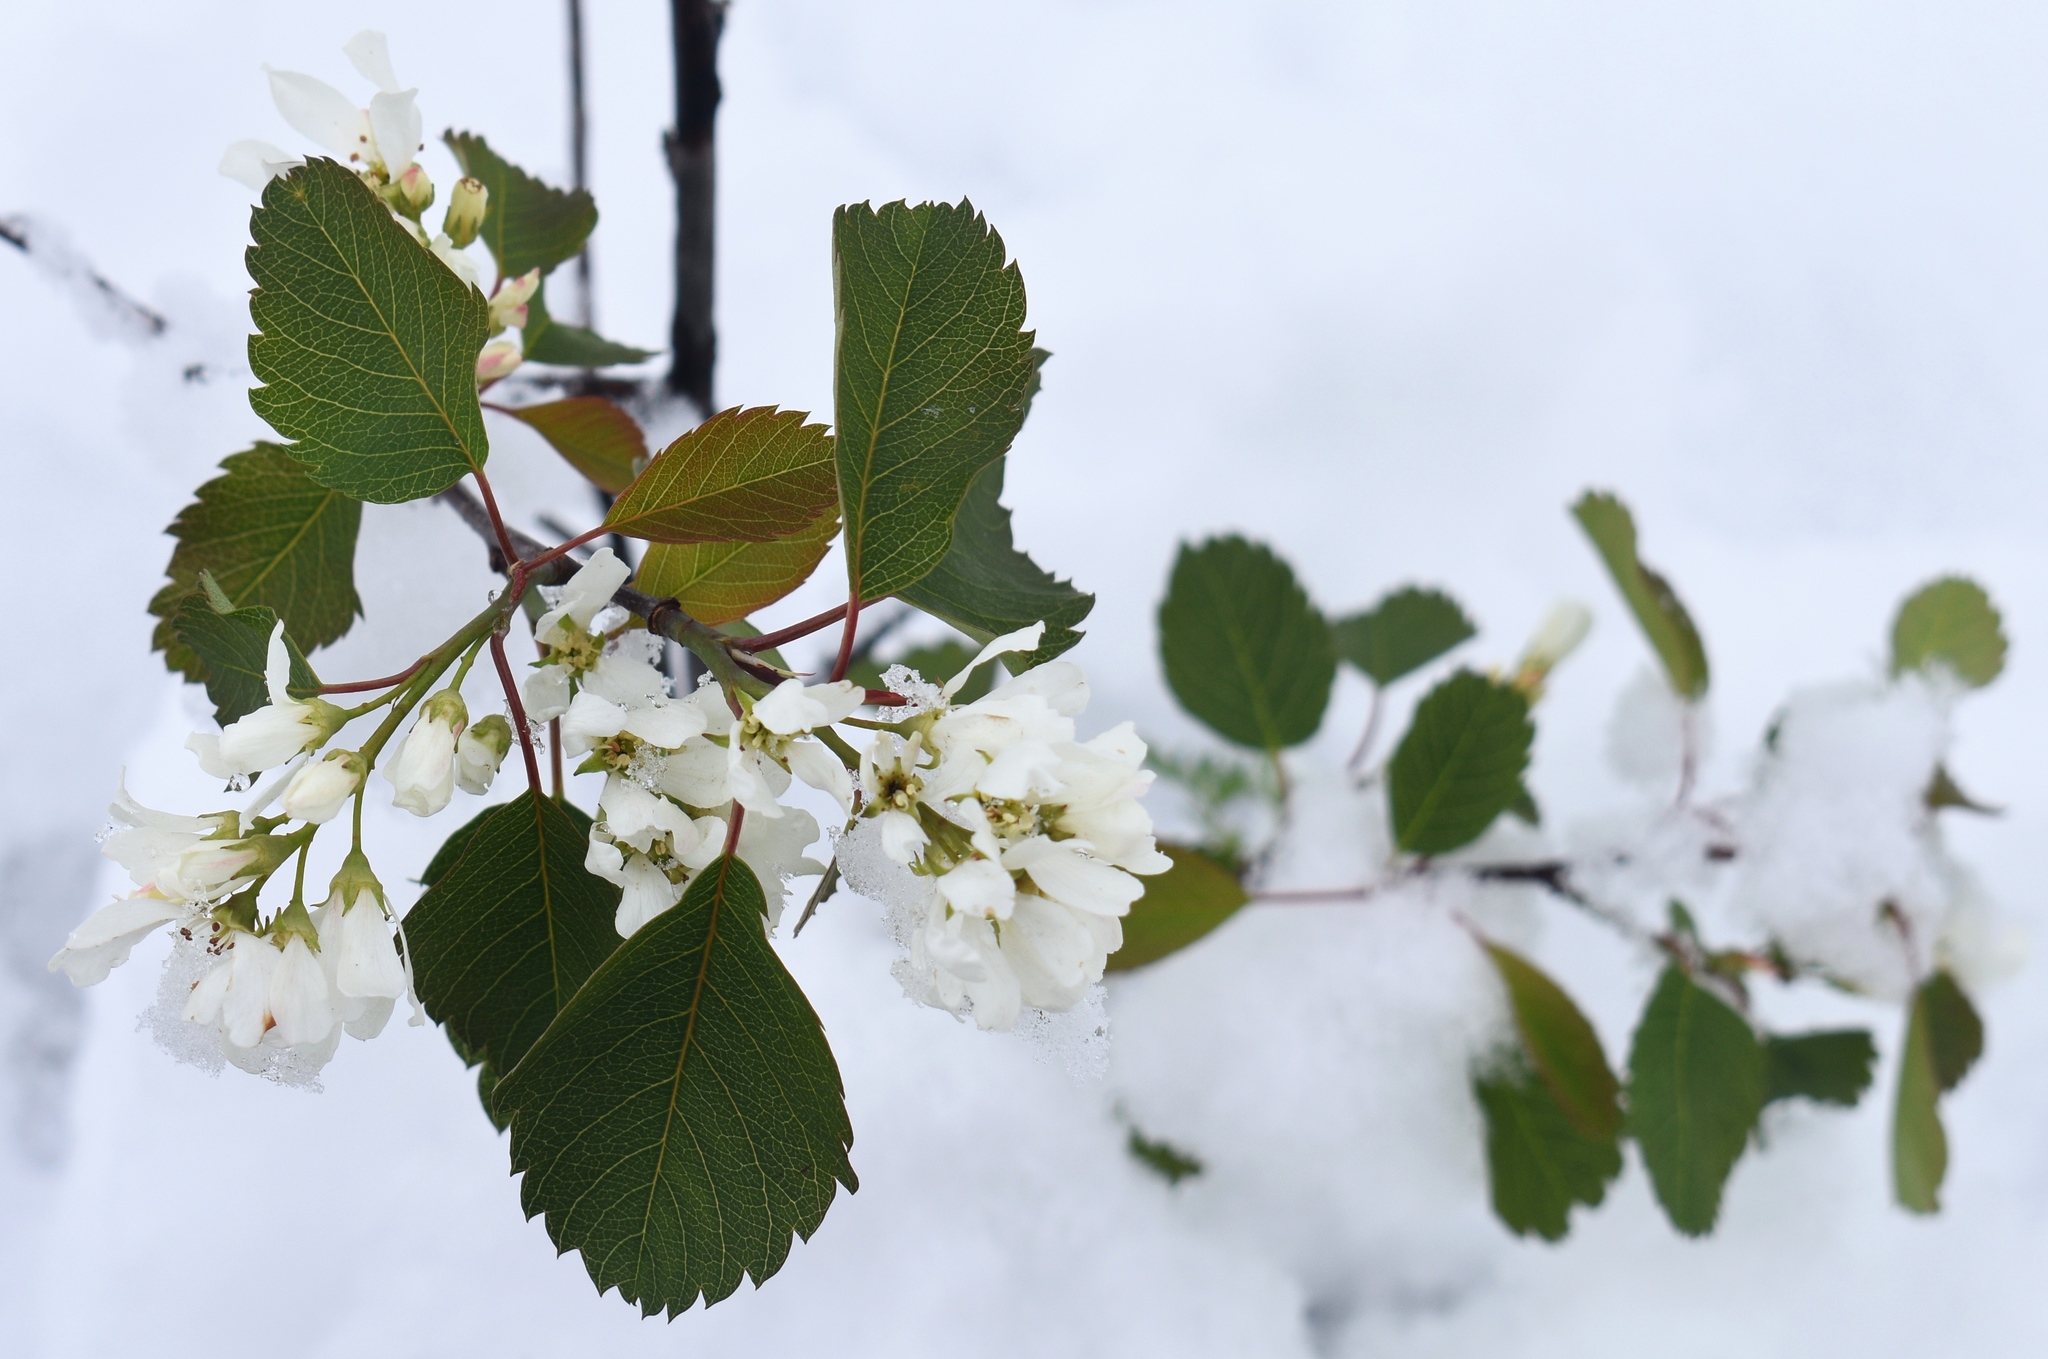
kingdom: Plantae
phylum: Tracheophyta
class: Magnoliopsida
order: Rosales
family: Rosaceae
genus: Amelanchier
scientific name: Amelanchier alnifolia
